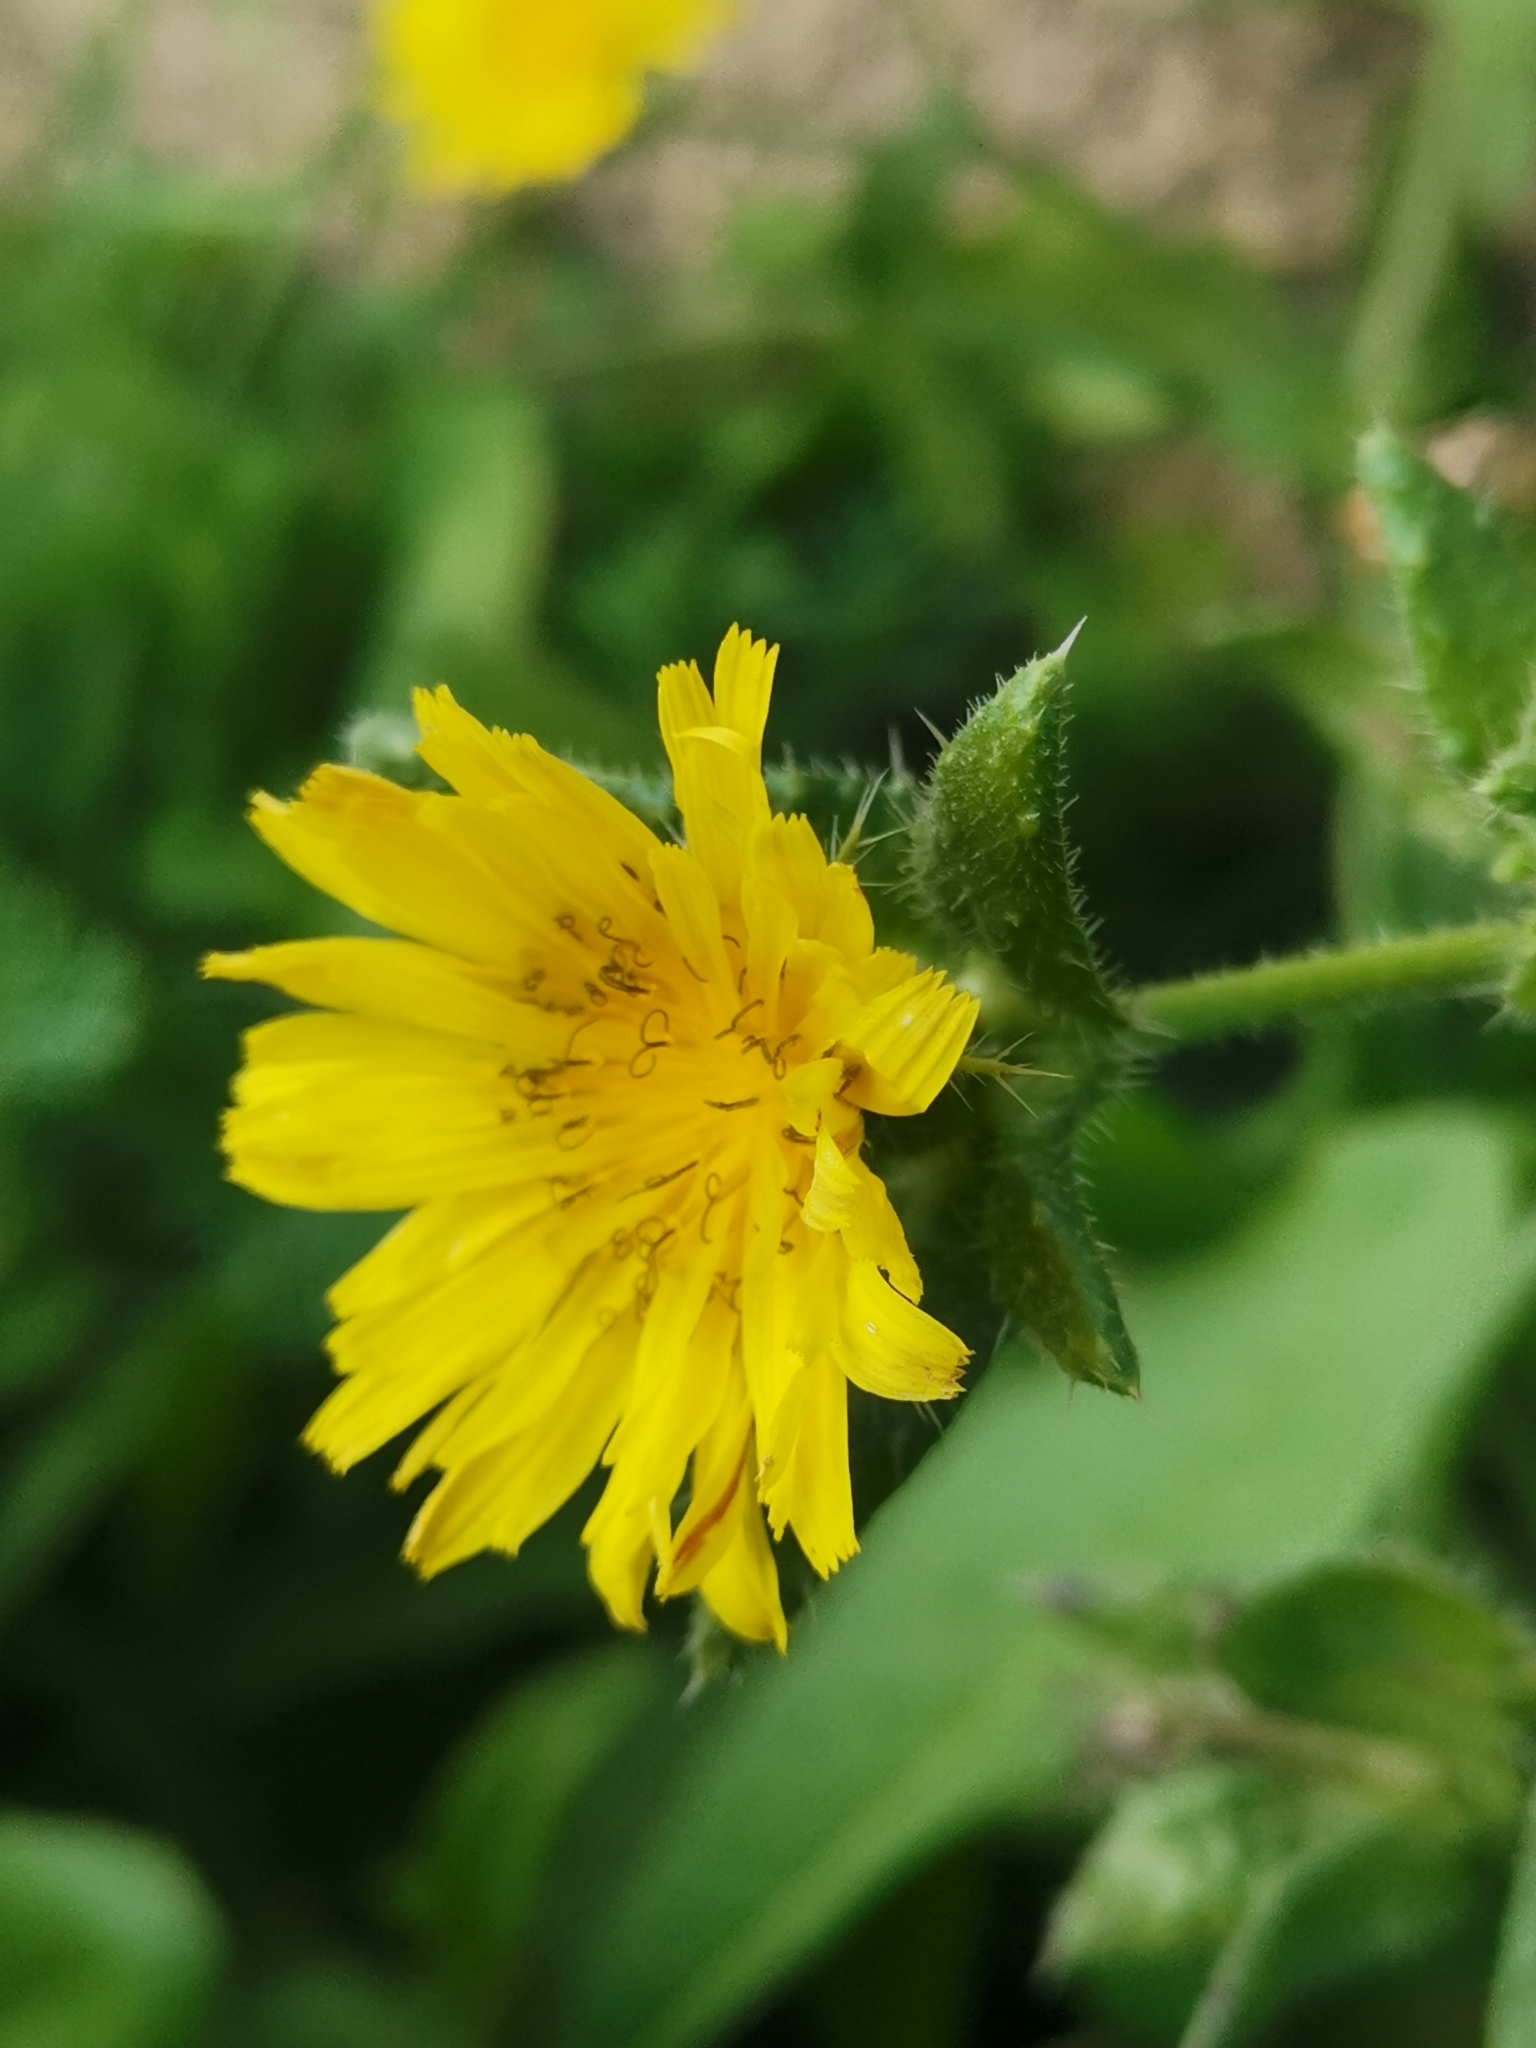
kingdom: Plantae
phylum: Tracheophyta
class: Magnoliopsida
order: Asterales
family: Asteraceae
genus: Helminthotheca
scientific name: Helminthotheca echioides
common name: Ox-tongue
